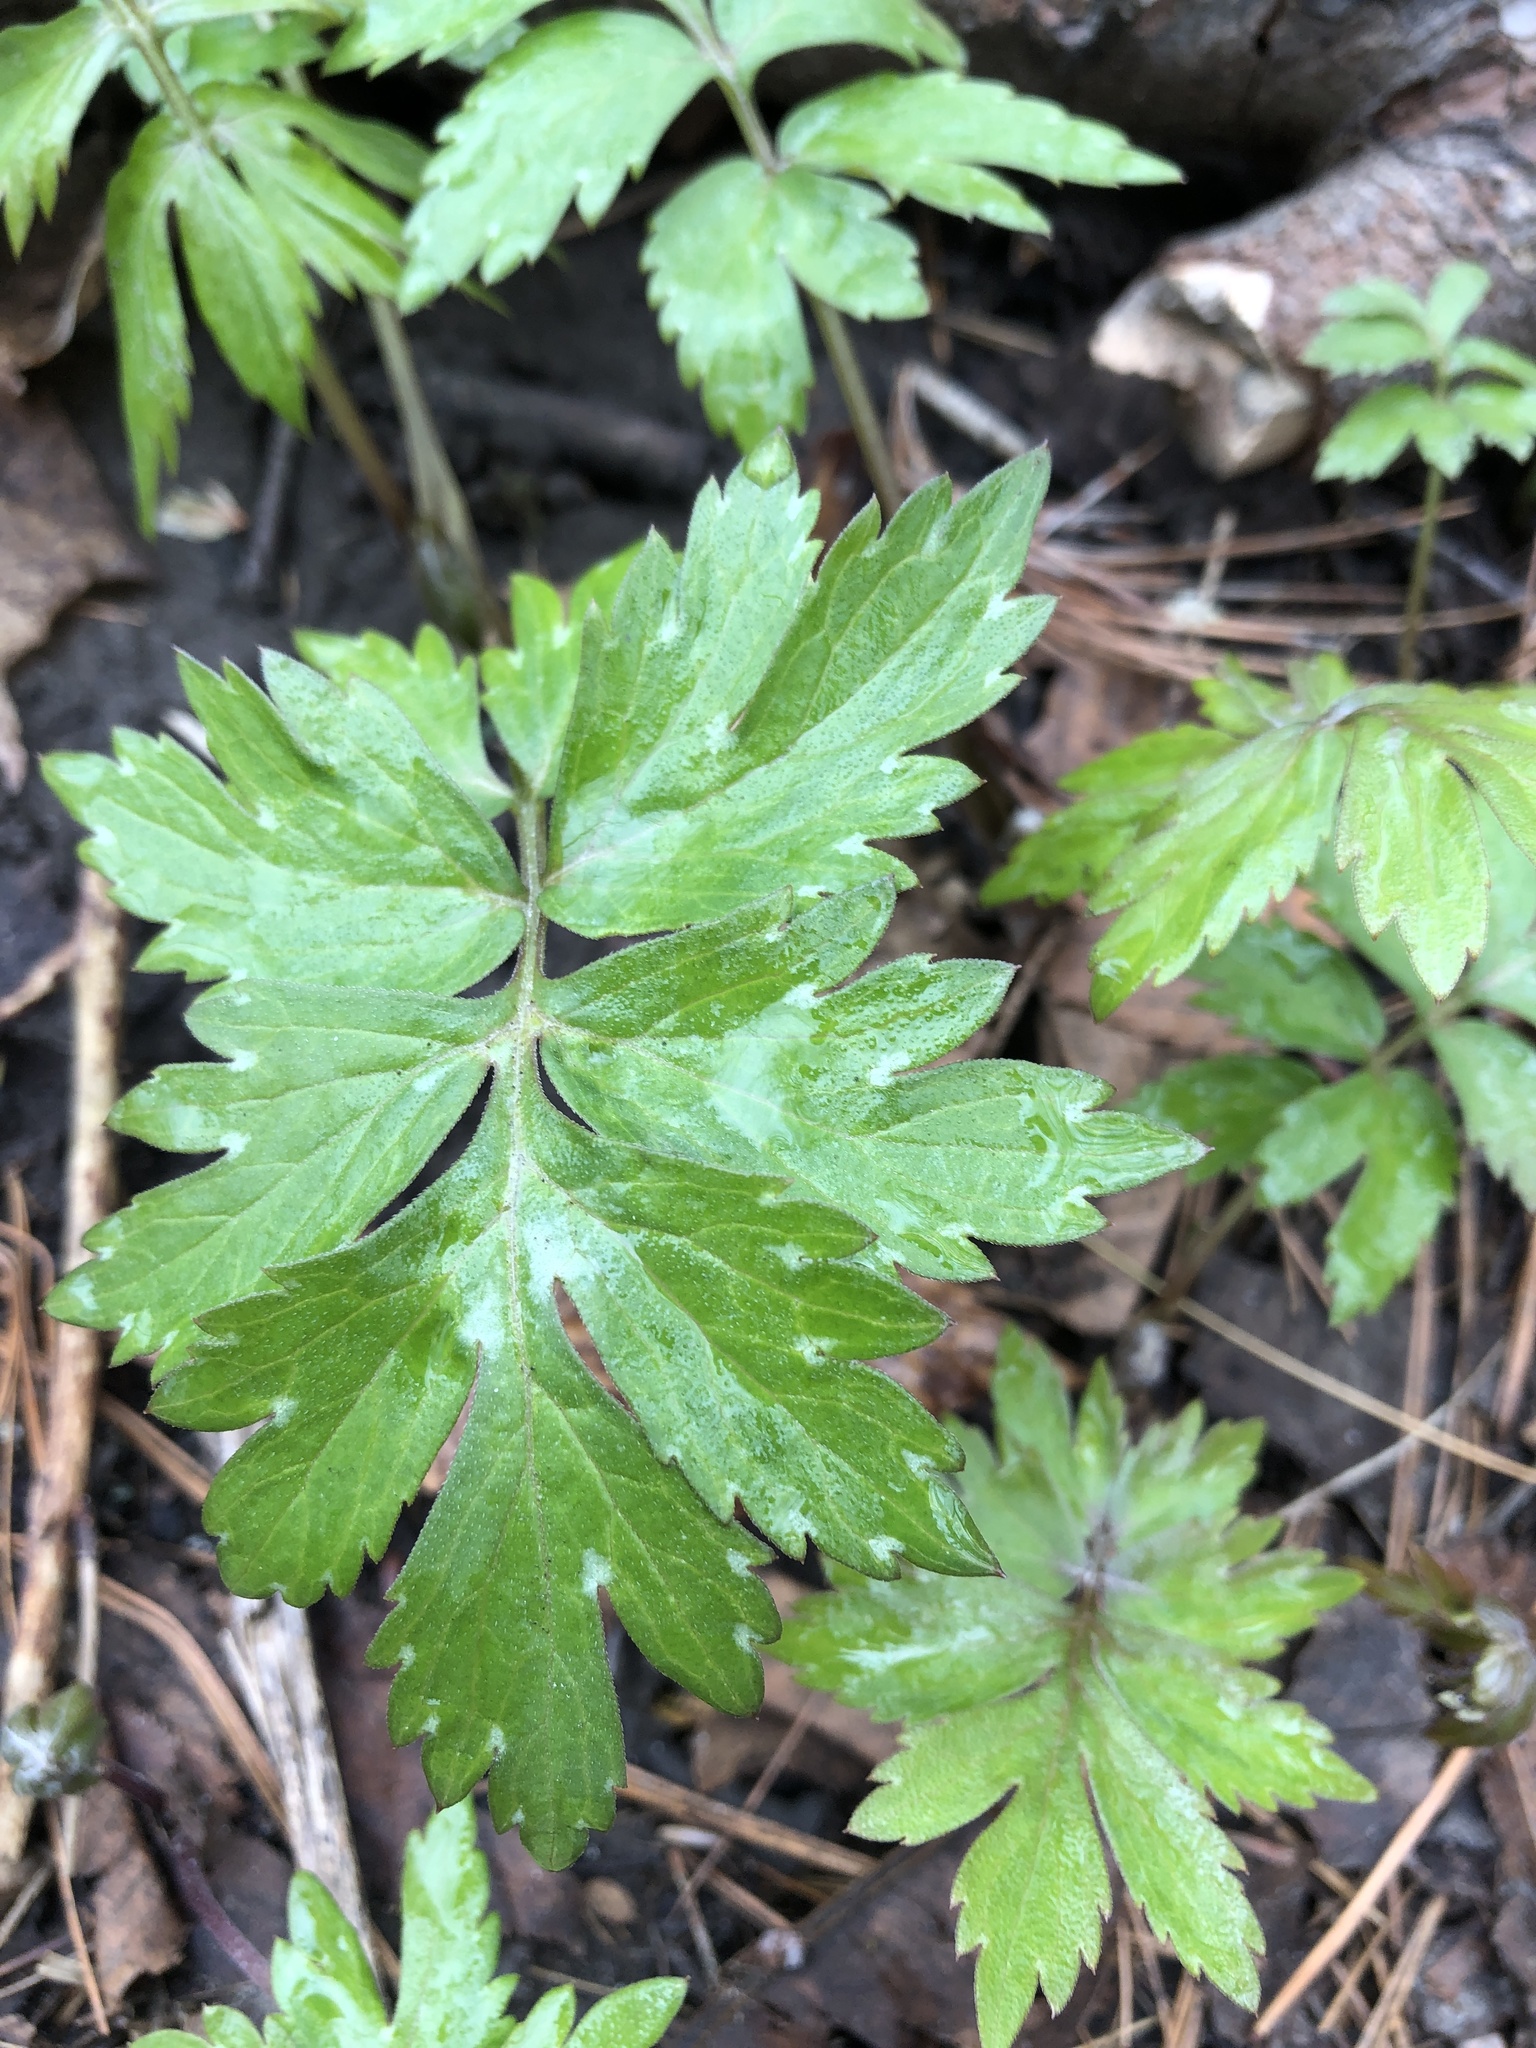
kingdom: Plantae
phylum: Tracheophyta
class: Magnoliopsida
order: Boraginales
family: Hydrophyllaceae
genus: Hydrophyllum
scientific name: Hydrophyllum virginianum
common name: Virginia waterleaf
